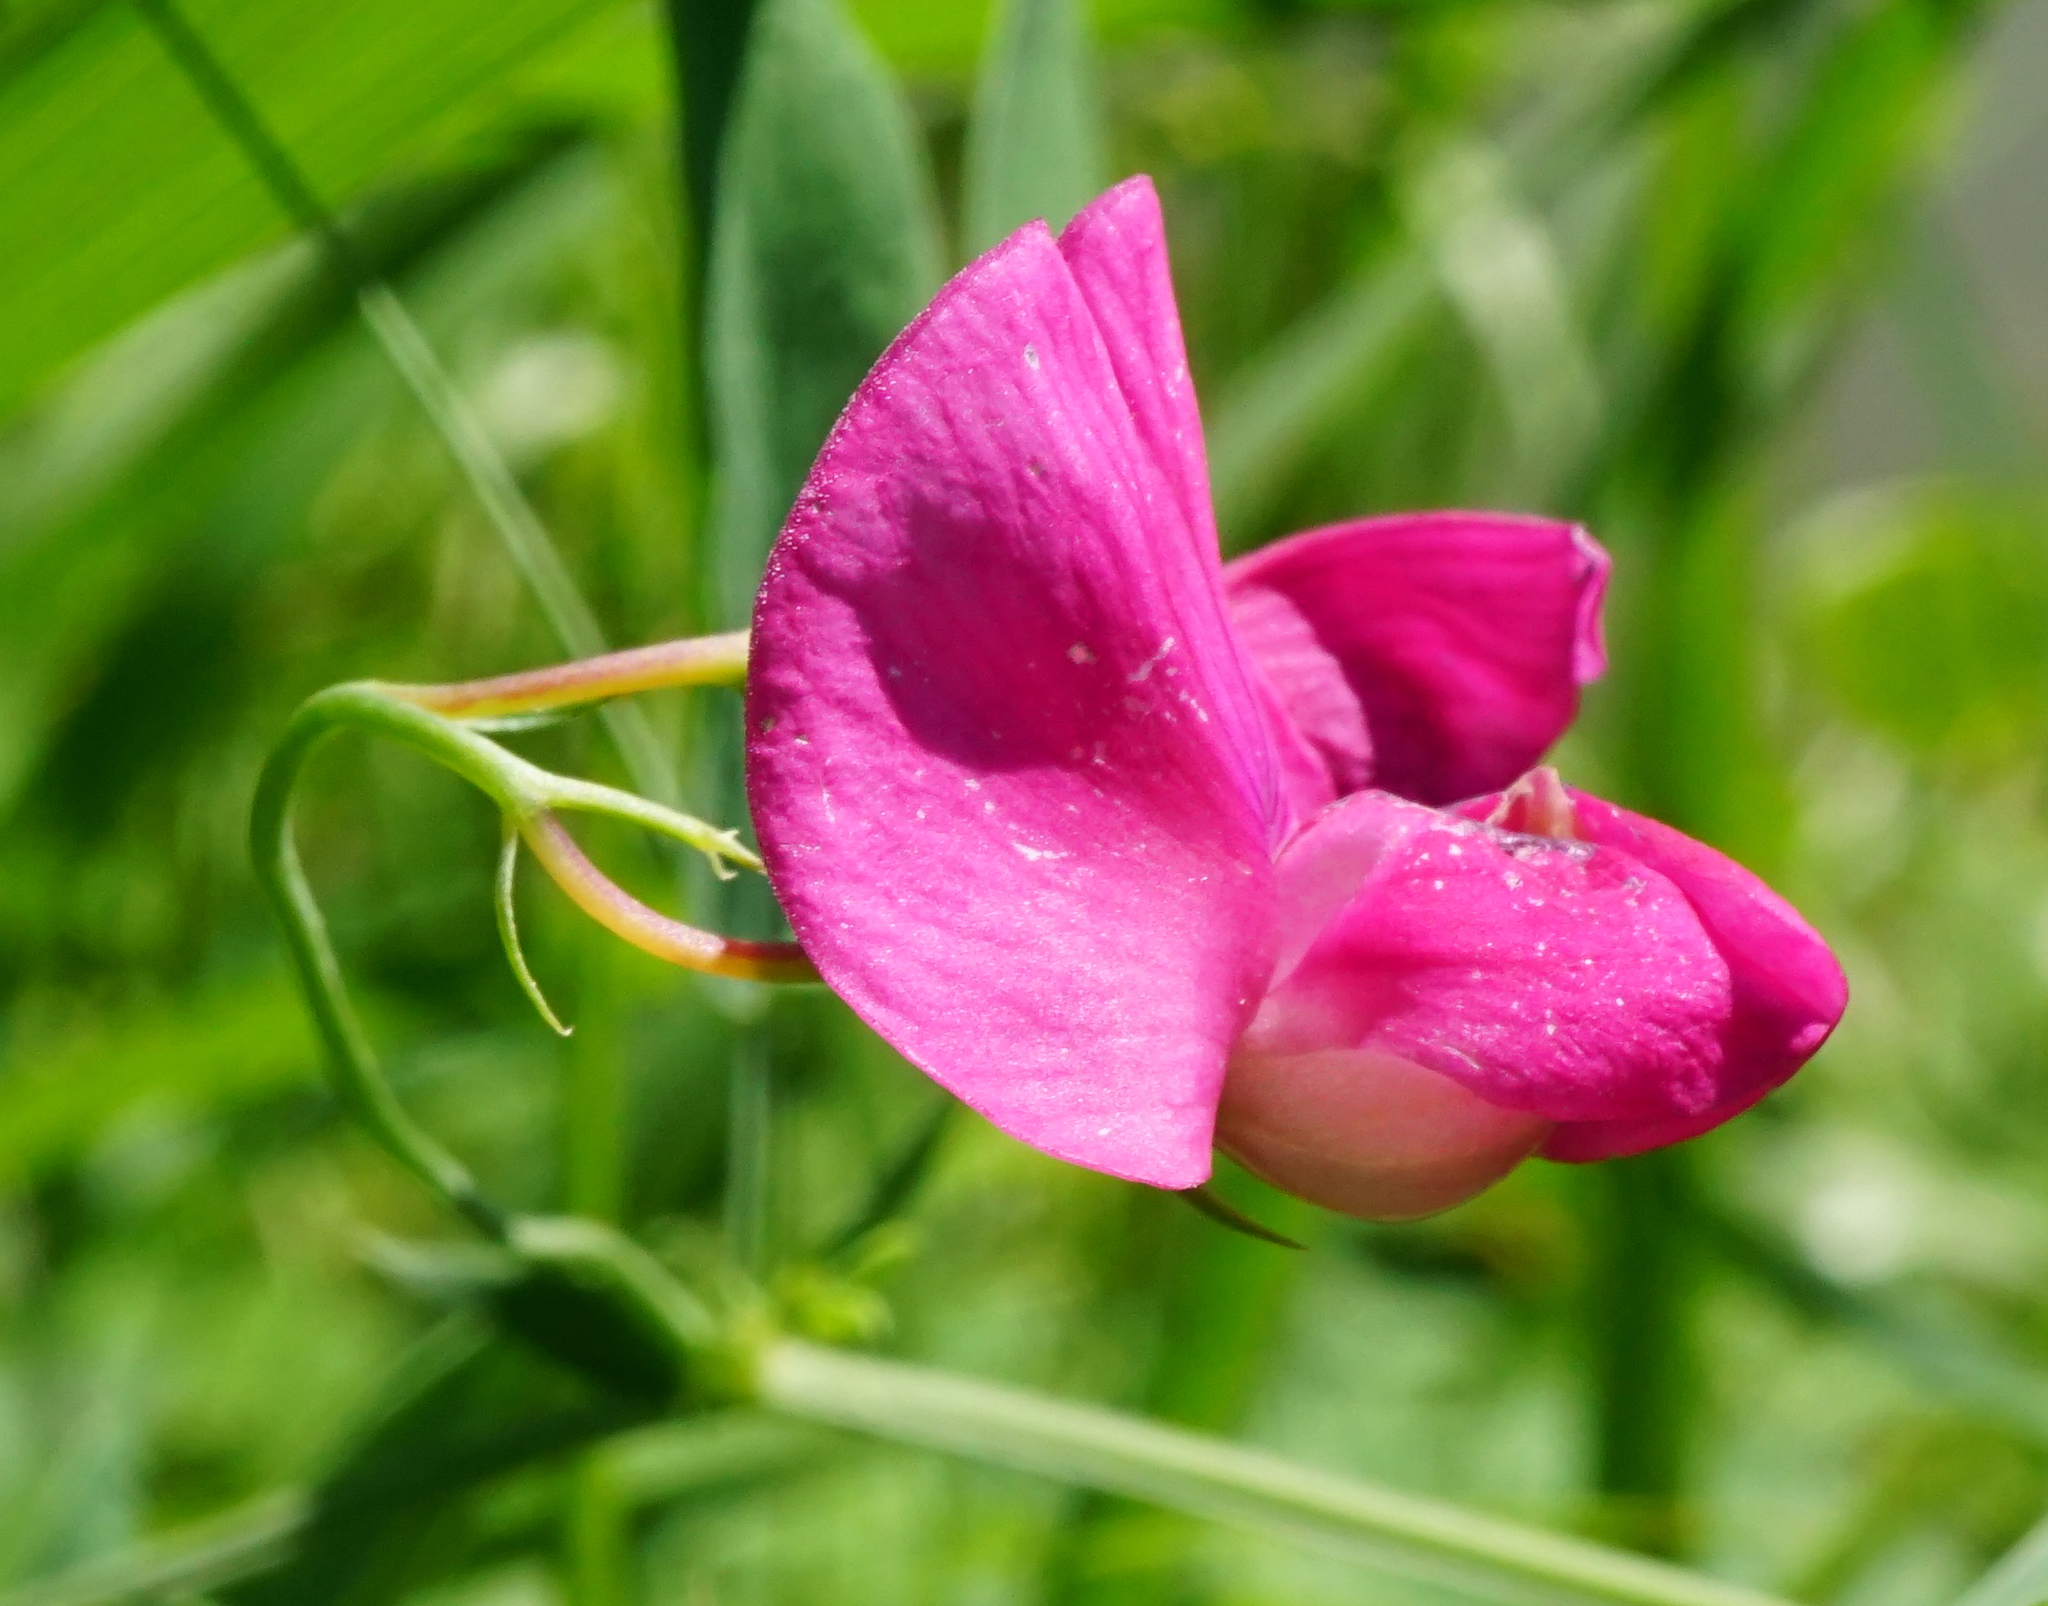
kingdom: Plantae
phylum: Tracheophyta
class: Magnoliopsida
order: Fabales
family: Fabaceae
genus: Lathyrus
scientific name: Lathyrus tuberosus
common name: Tuberous pea
